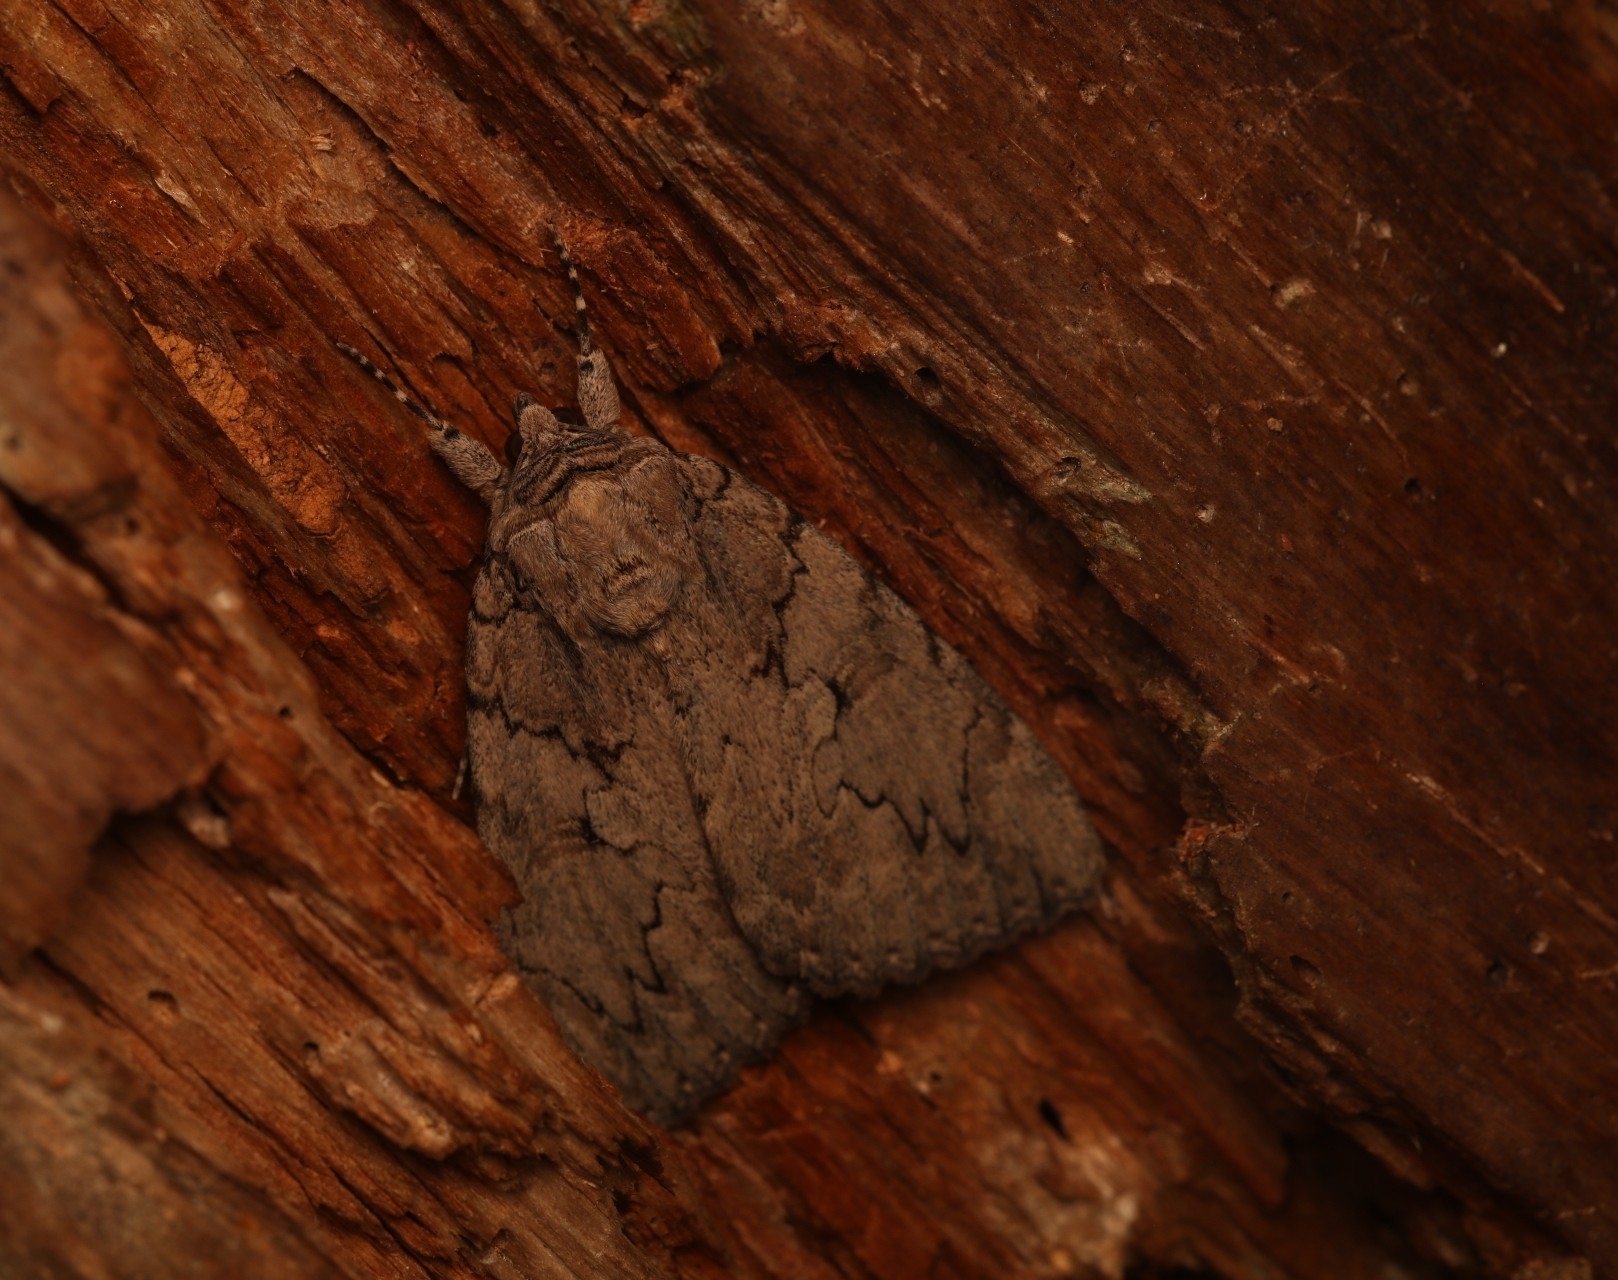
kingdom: Animalia
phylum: Arthropoda
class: Insecta
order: Lepidoptera
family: Erebidae
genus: Catocala
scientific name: Catocala amatrix
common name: Sweetheart underwing
